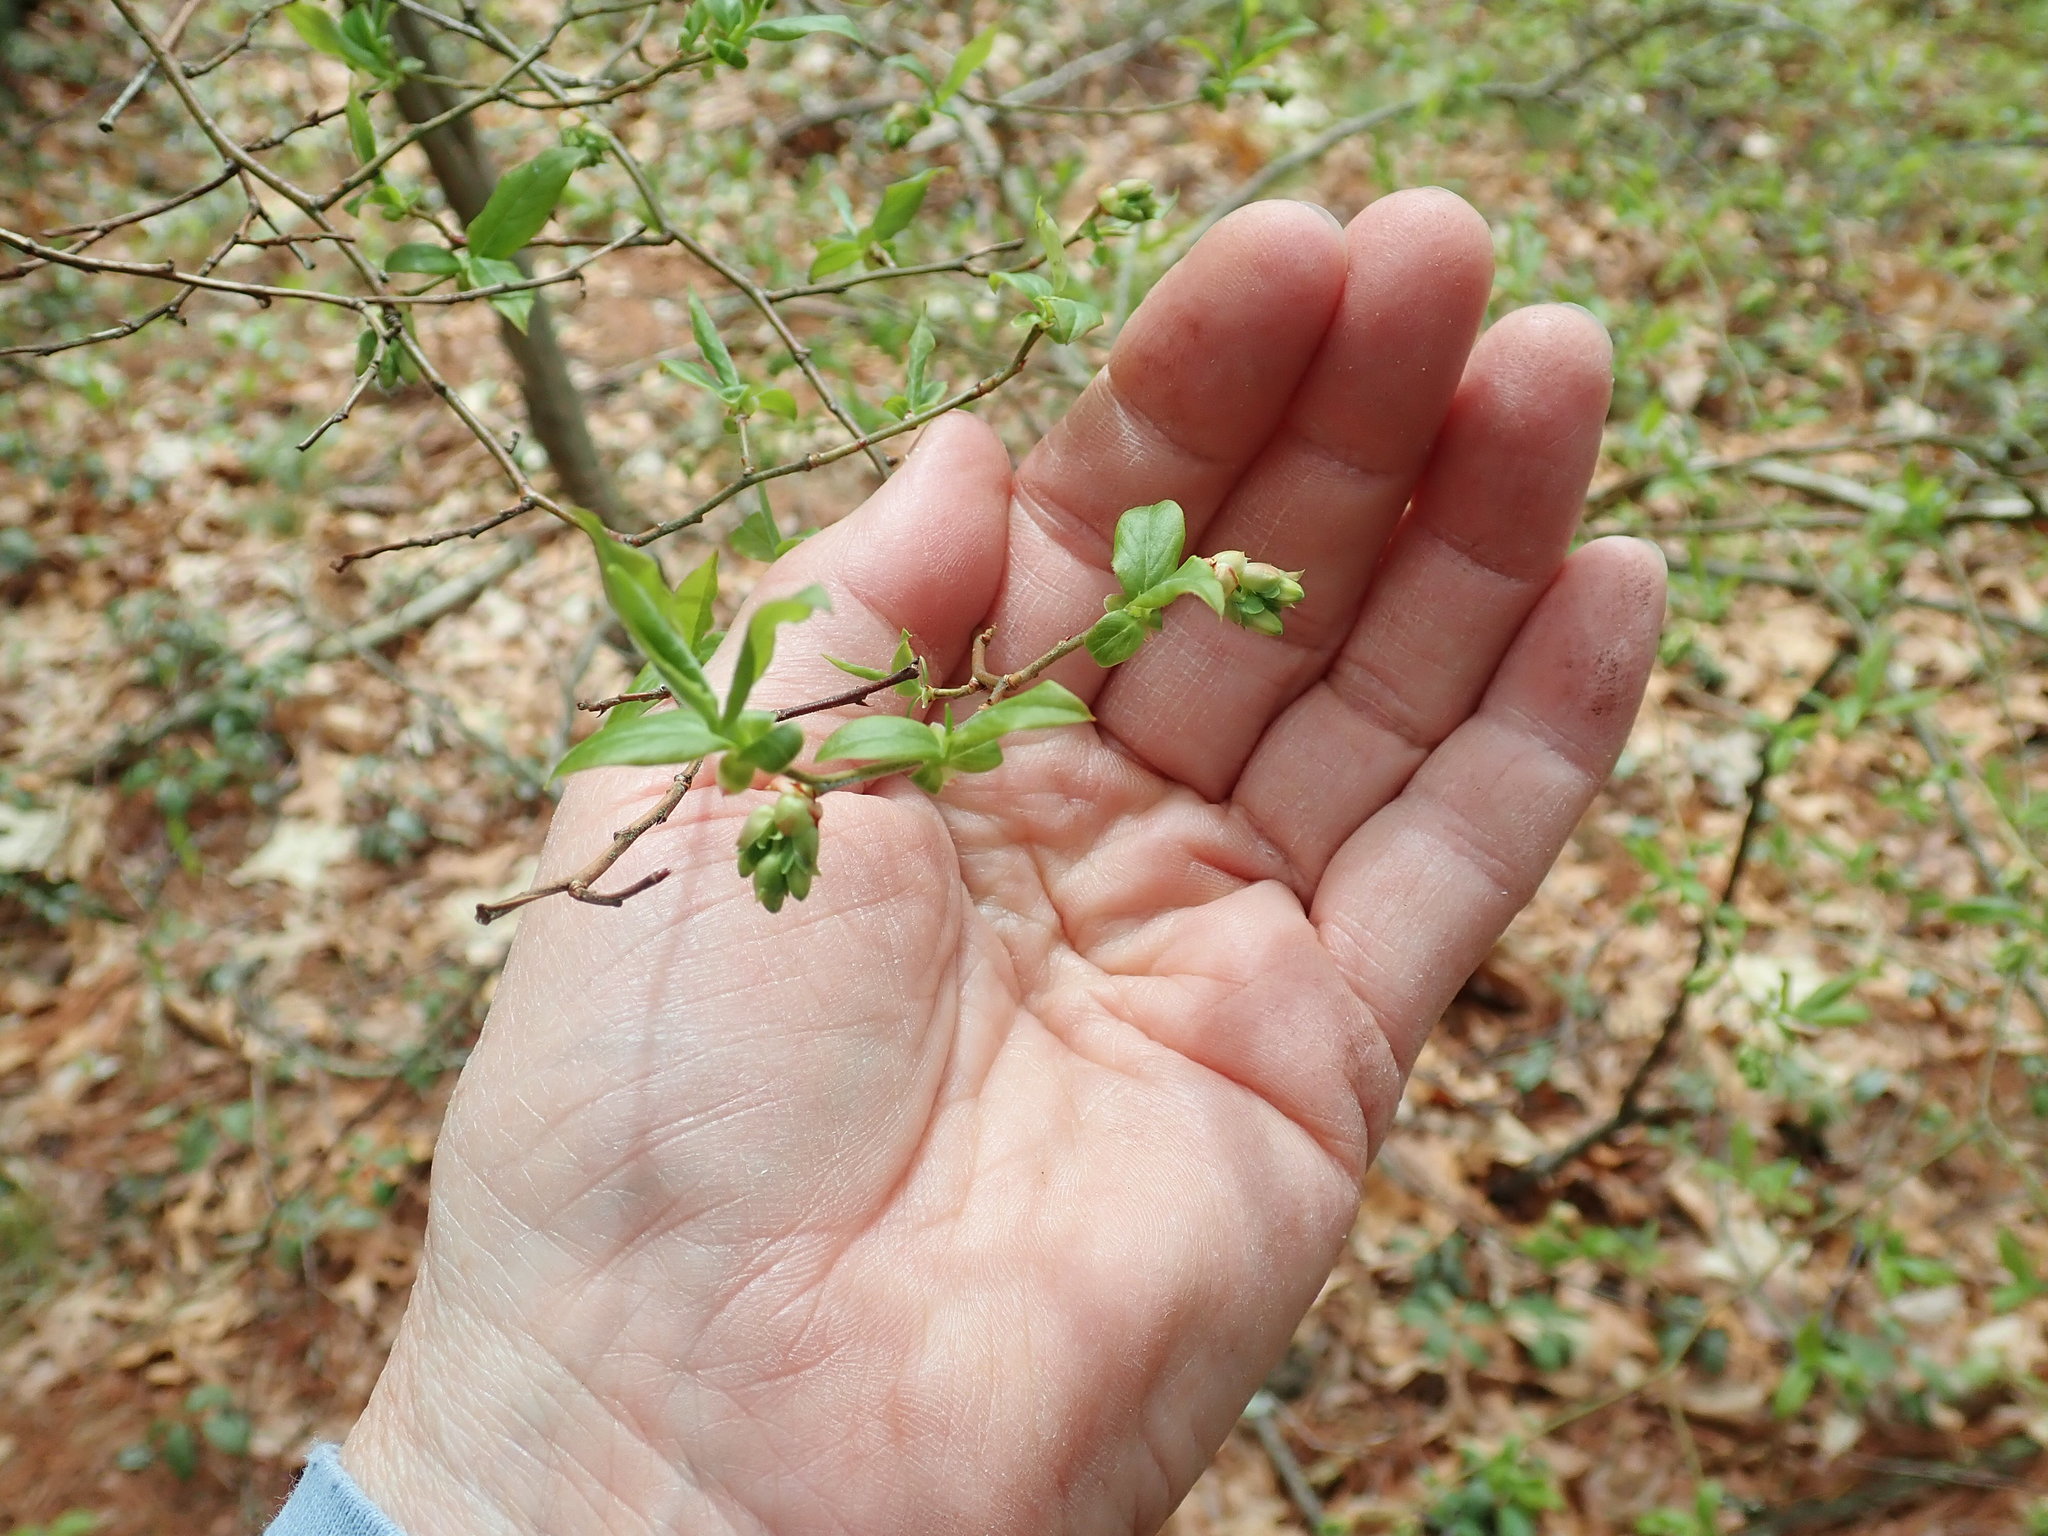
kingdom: Plantae
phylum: Tracheophyta
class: Magnoliopsida
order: Ericales
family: Ericaceae
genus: Vaccinium
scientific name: Vaccinium corymbosum
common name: Blueberry
